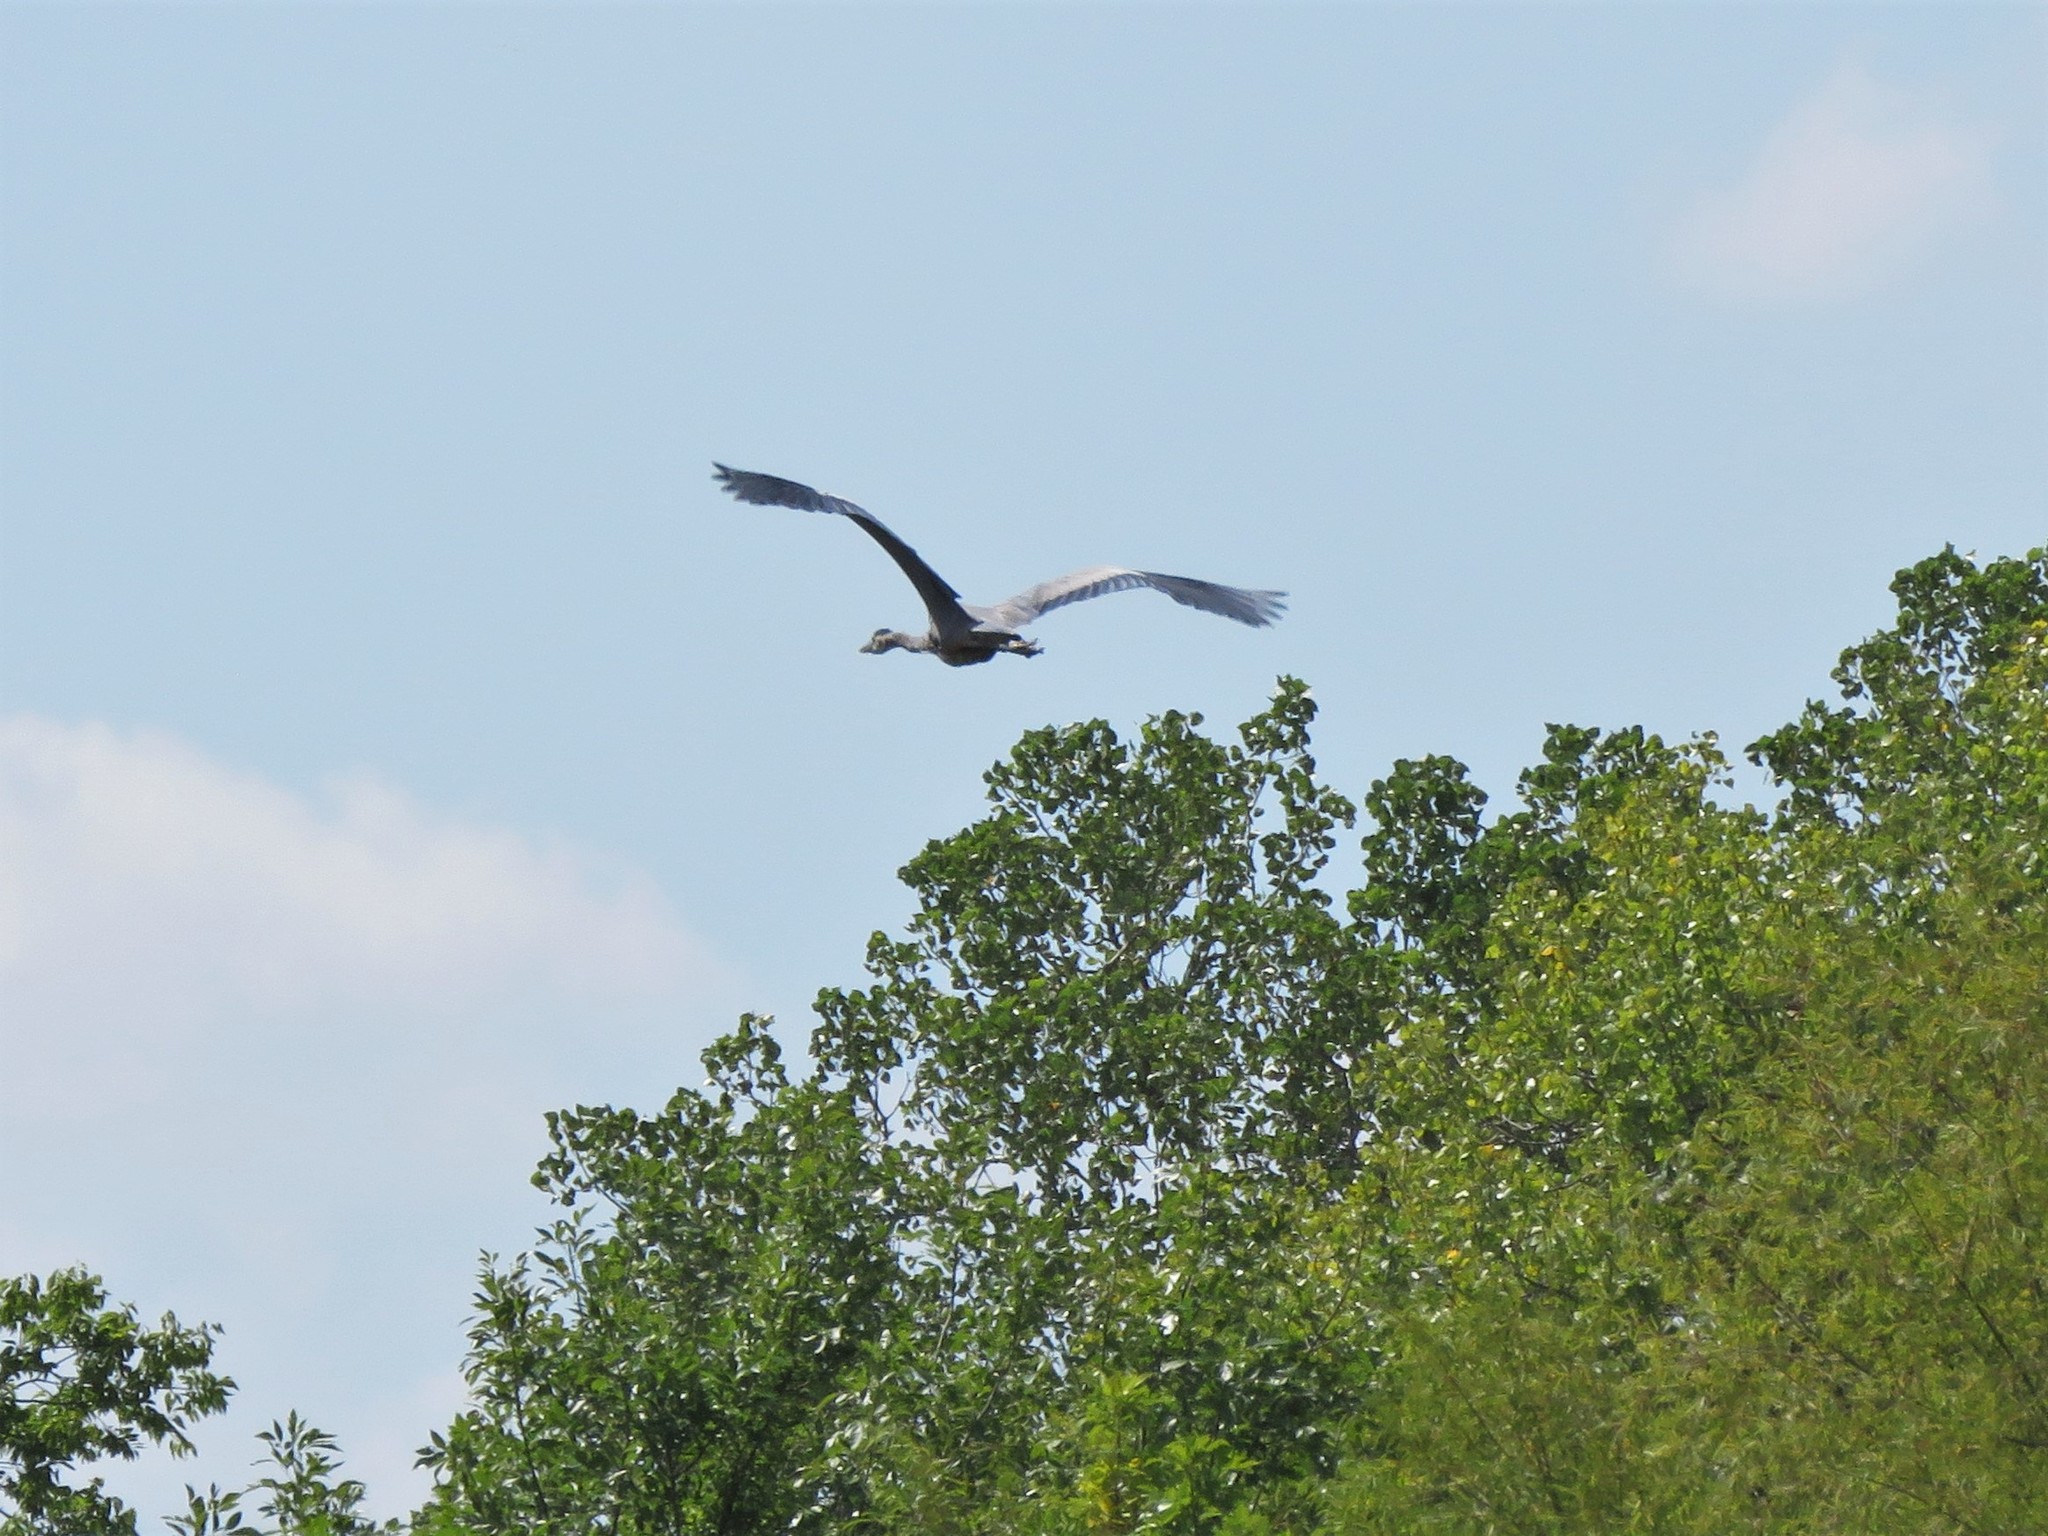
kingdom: Animalia
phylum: Chordata
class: Aves
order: Pelecaniformes
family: Ardeidae
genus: Ardea
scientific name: Ardea herodias
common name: Great blue heron
